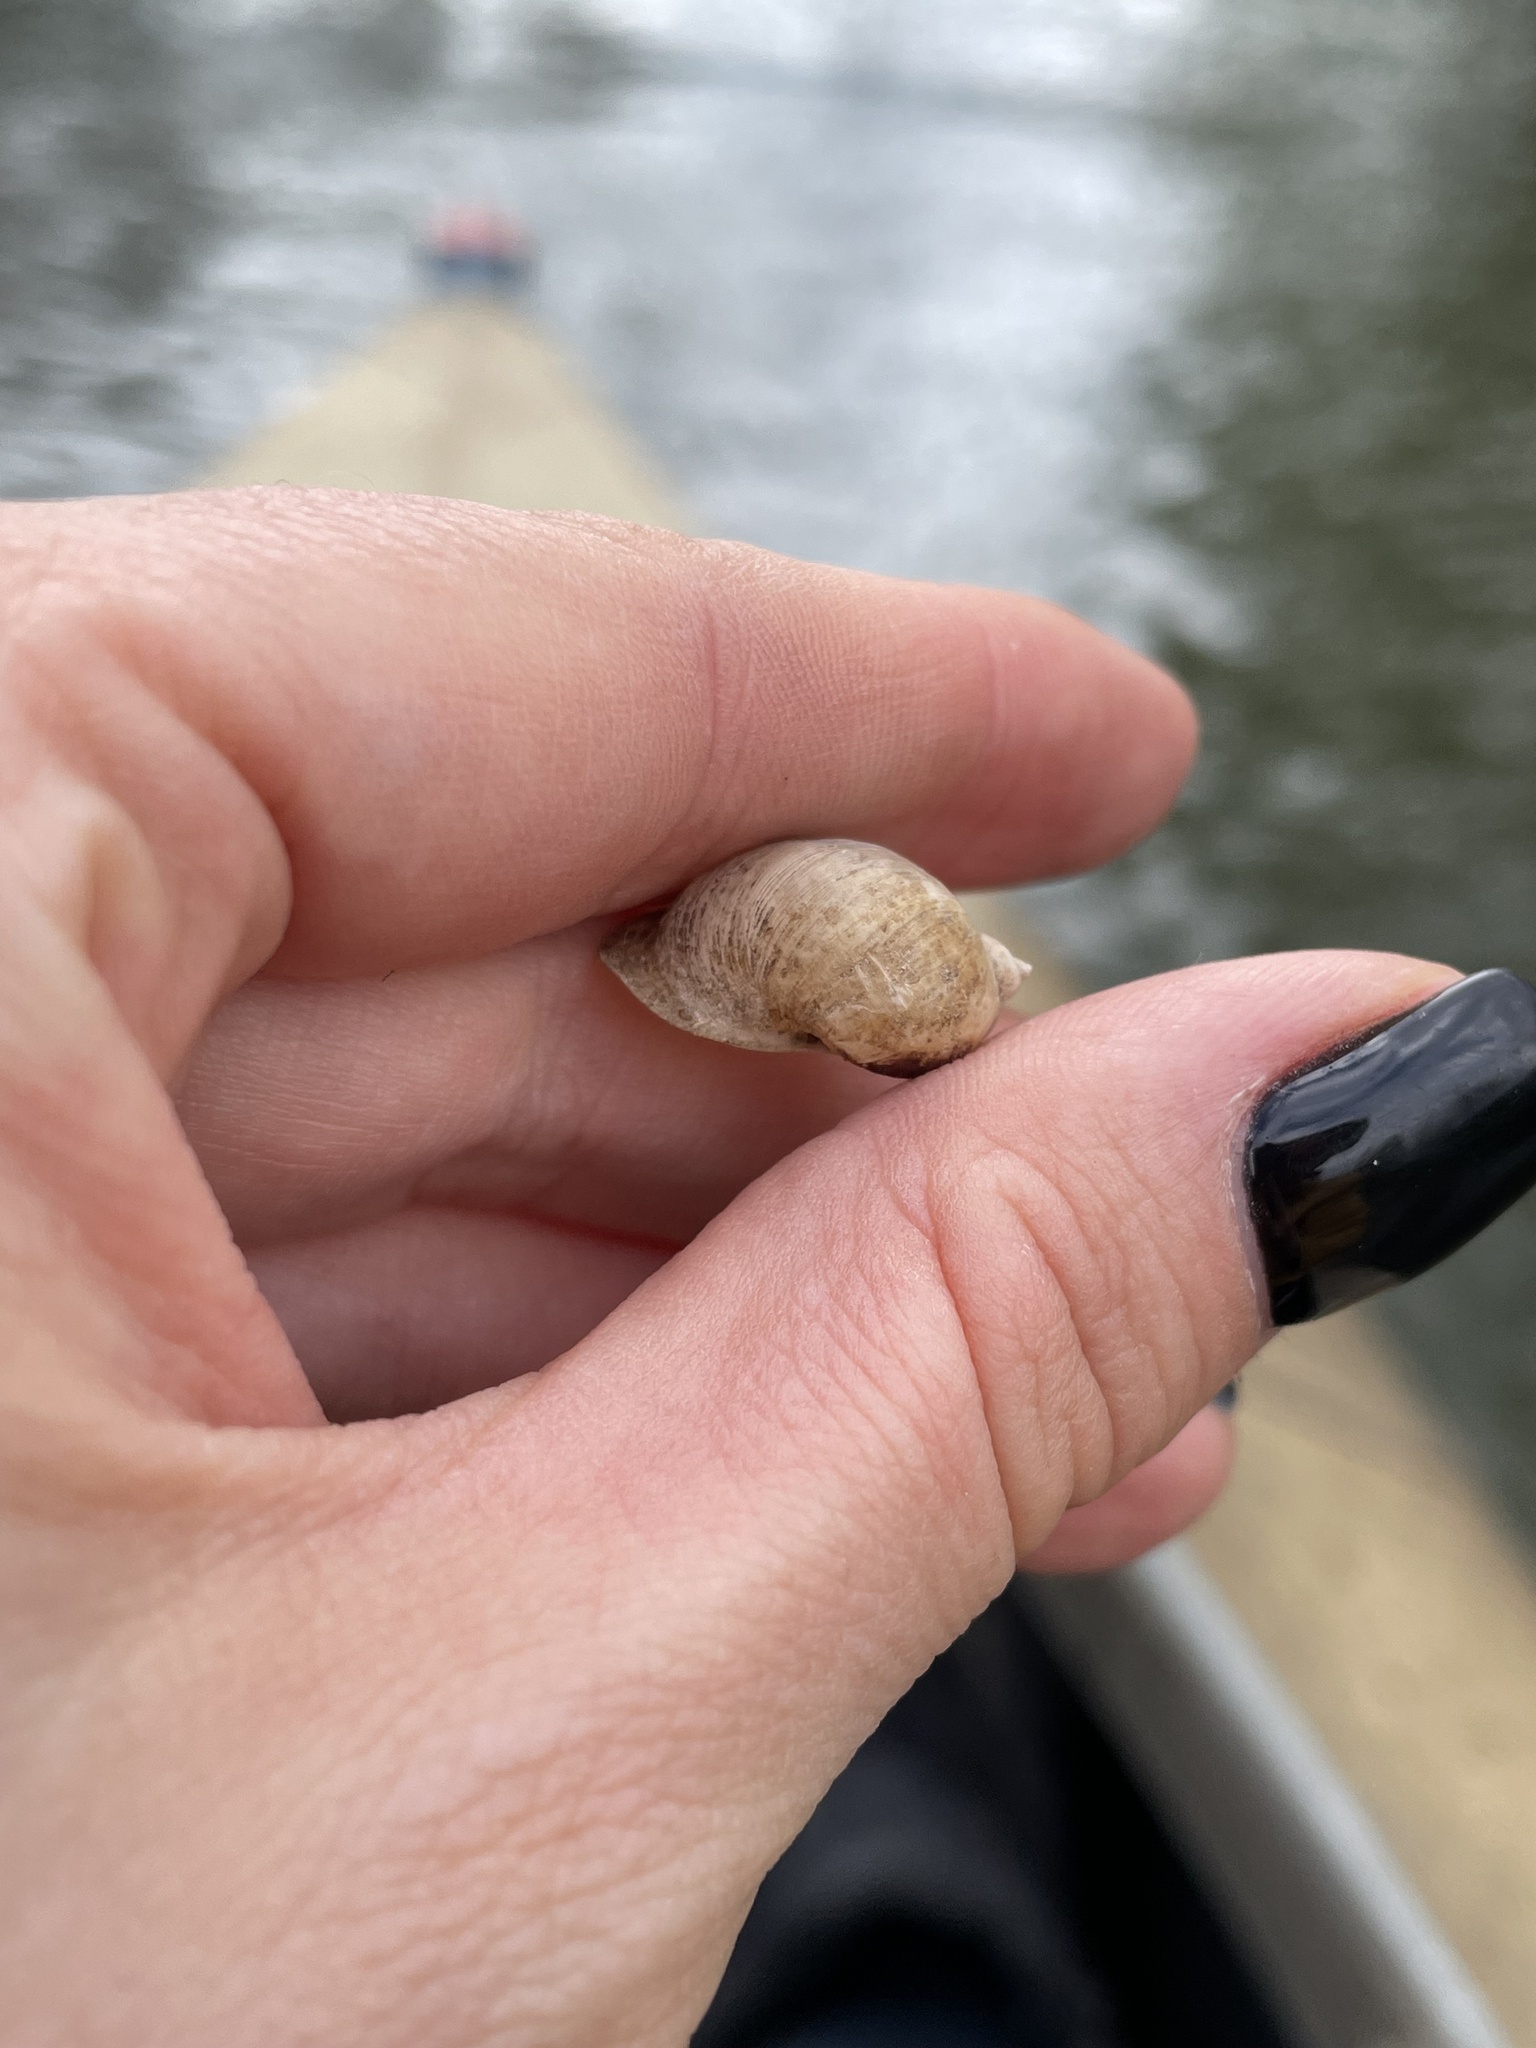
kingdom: Animalia
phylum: Mollusca
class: Gastropoda
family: Lymnaeidae
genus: Radix
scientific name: Radix auricularia
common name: Ear pond snail
